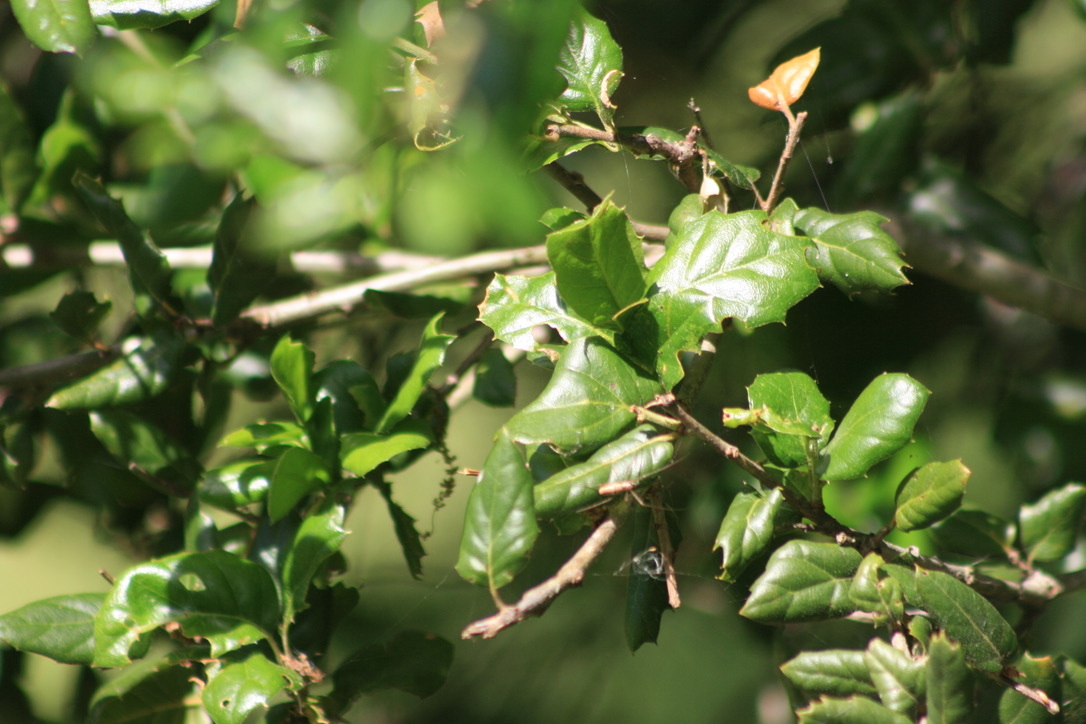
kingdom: Plantae
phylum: Tracheophyta
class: Magnoliopsida
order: Fagales
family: Fagaceae
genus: Quercus
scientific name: Quercus agrifolia
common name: California live oak
